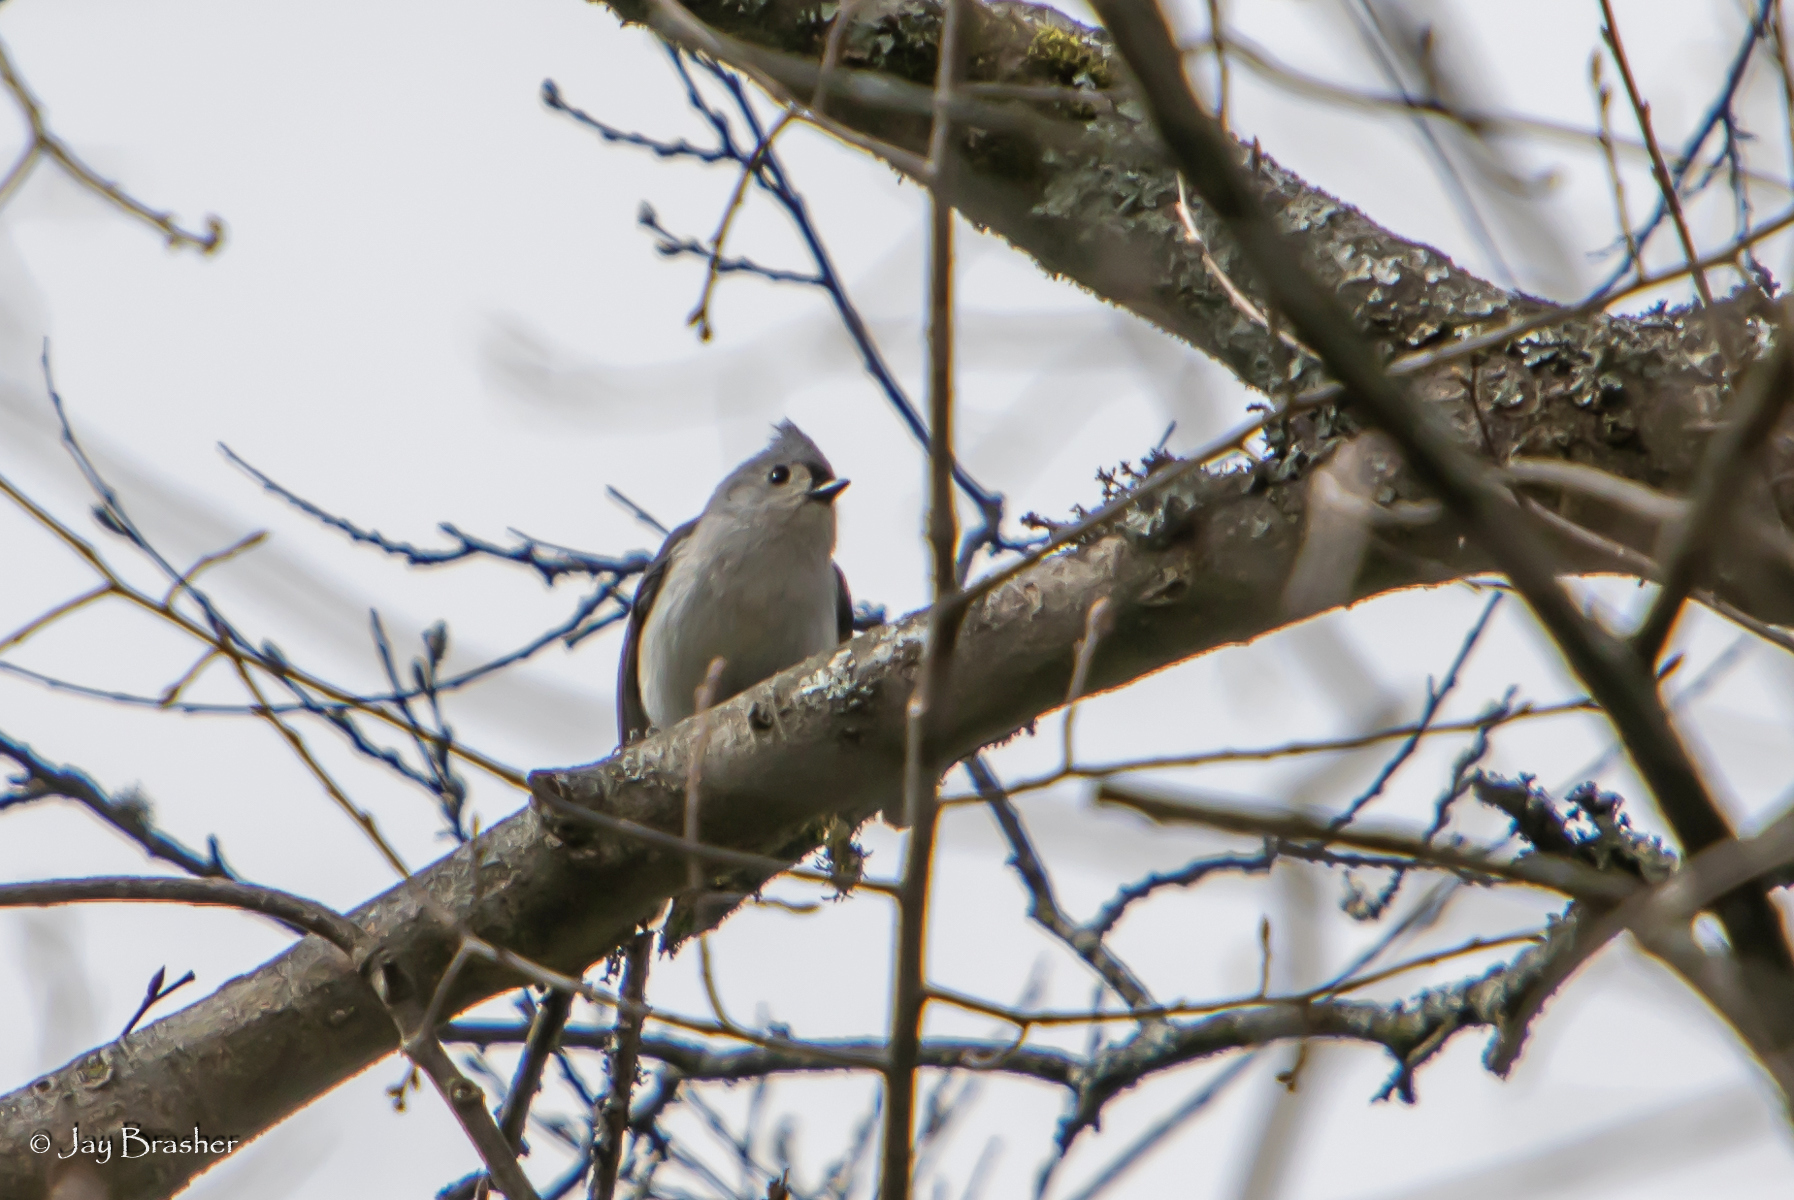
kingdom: Animalia
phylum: Chordata
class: Aves
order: Passeriformes
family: Paridae
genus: Baeolophus
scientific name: Baeolophus bicolor
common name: Tufted titmouse
